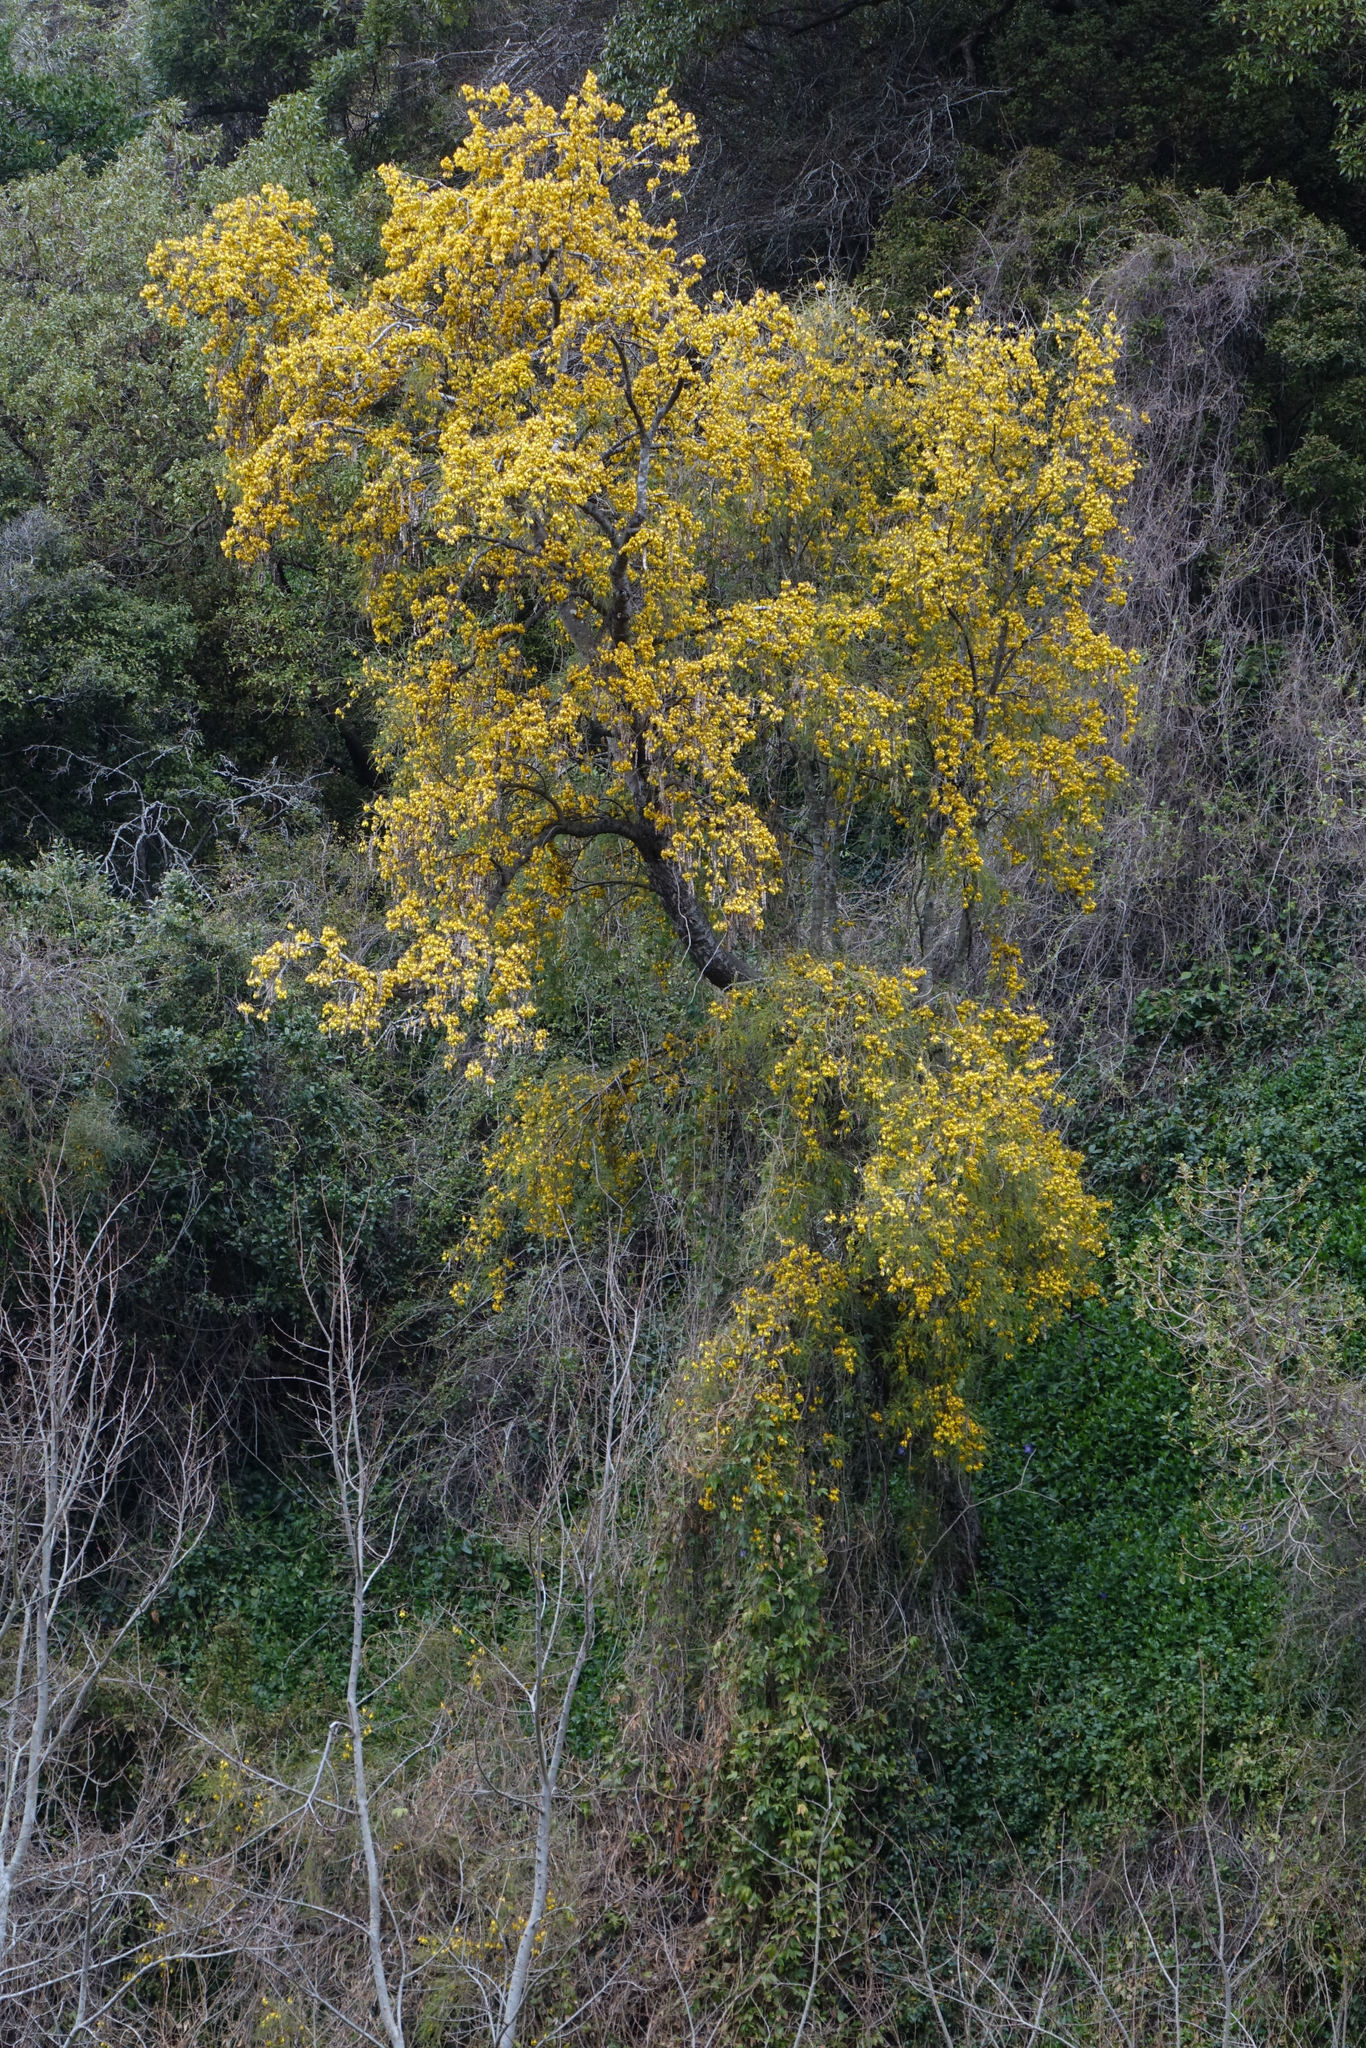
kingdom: Plantae
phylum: Tracheophyta
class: Magnoliopsida
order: Fabales
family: Fabaceae
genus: Sophora
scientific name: Sophora microphylla
